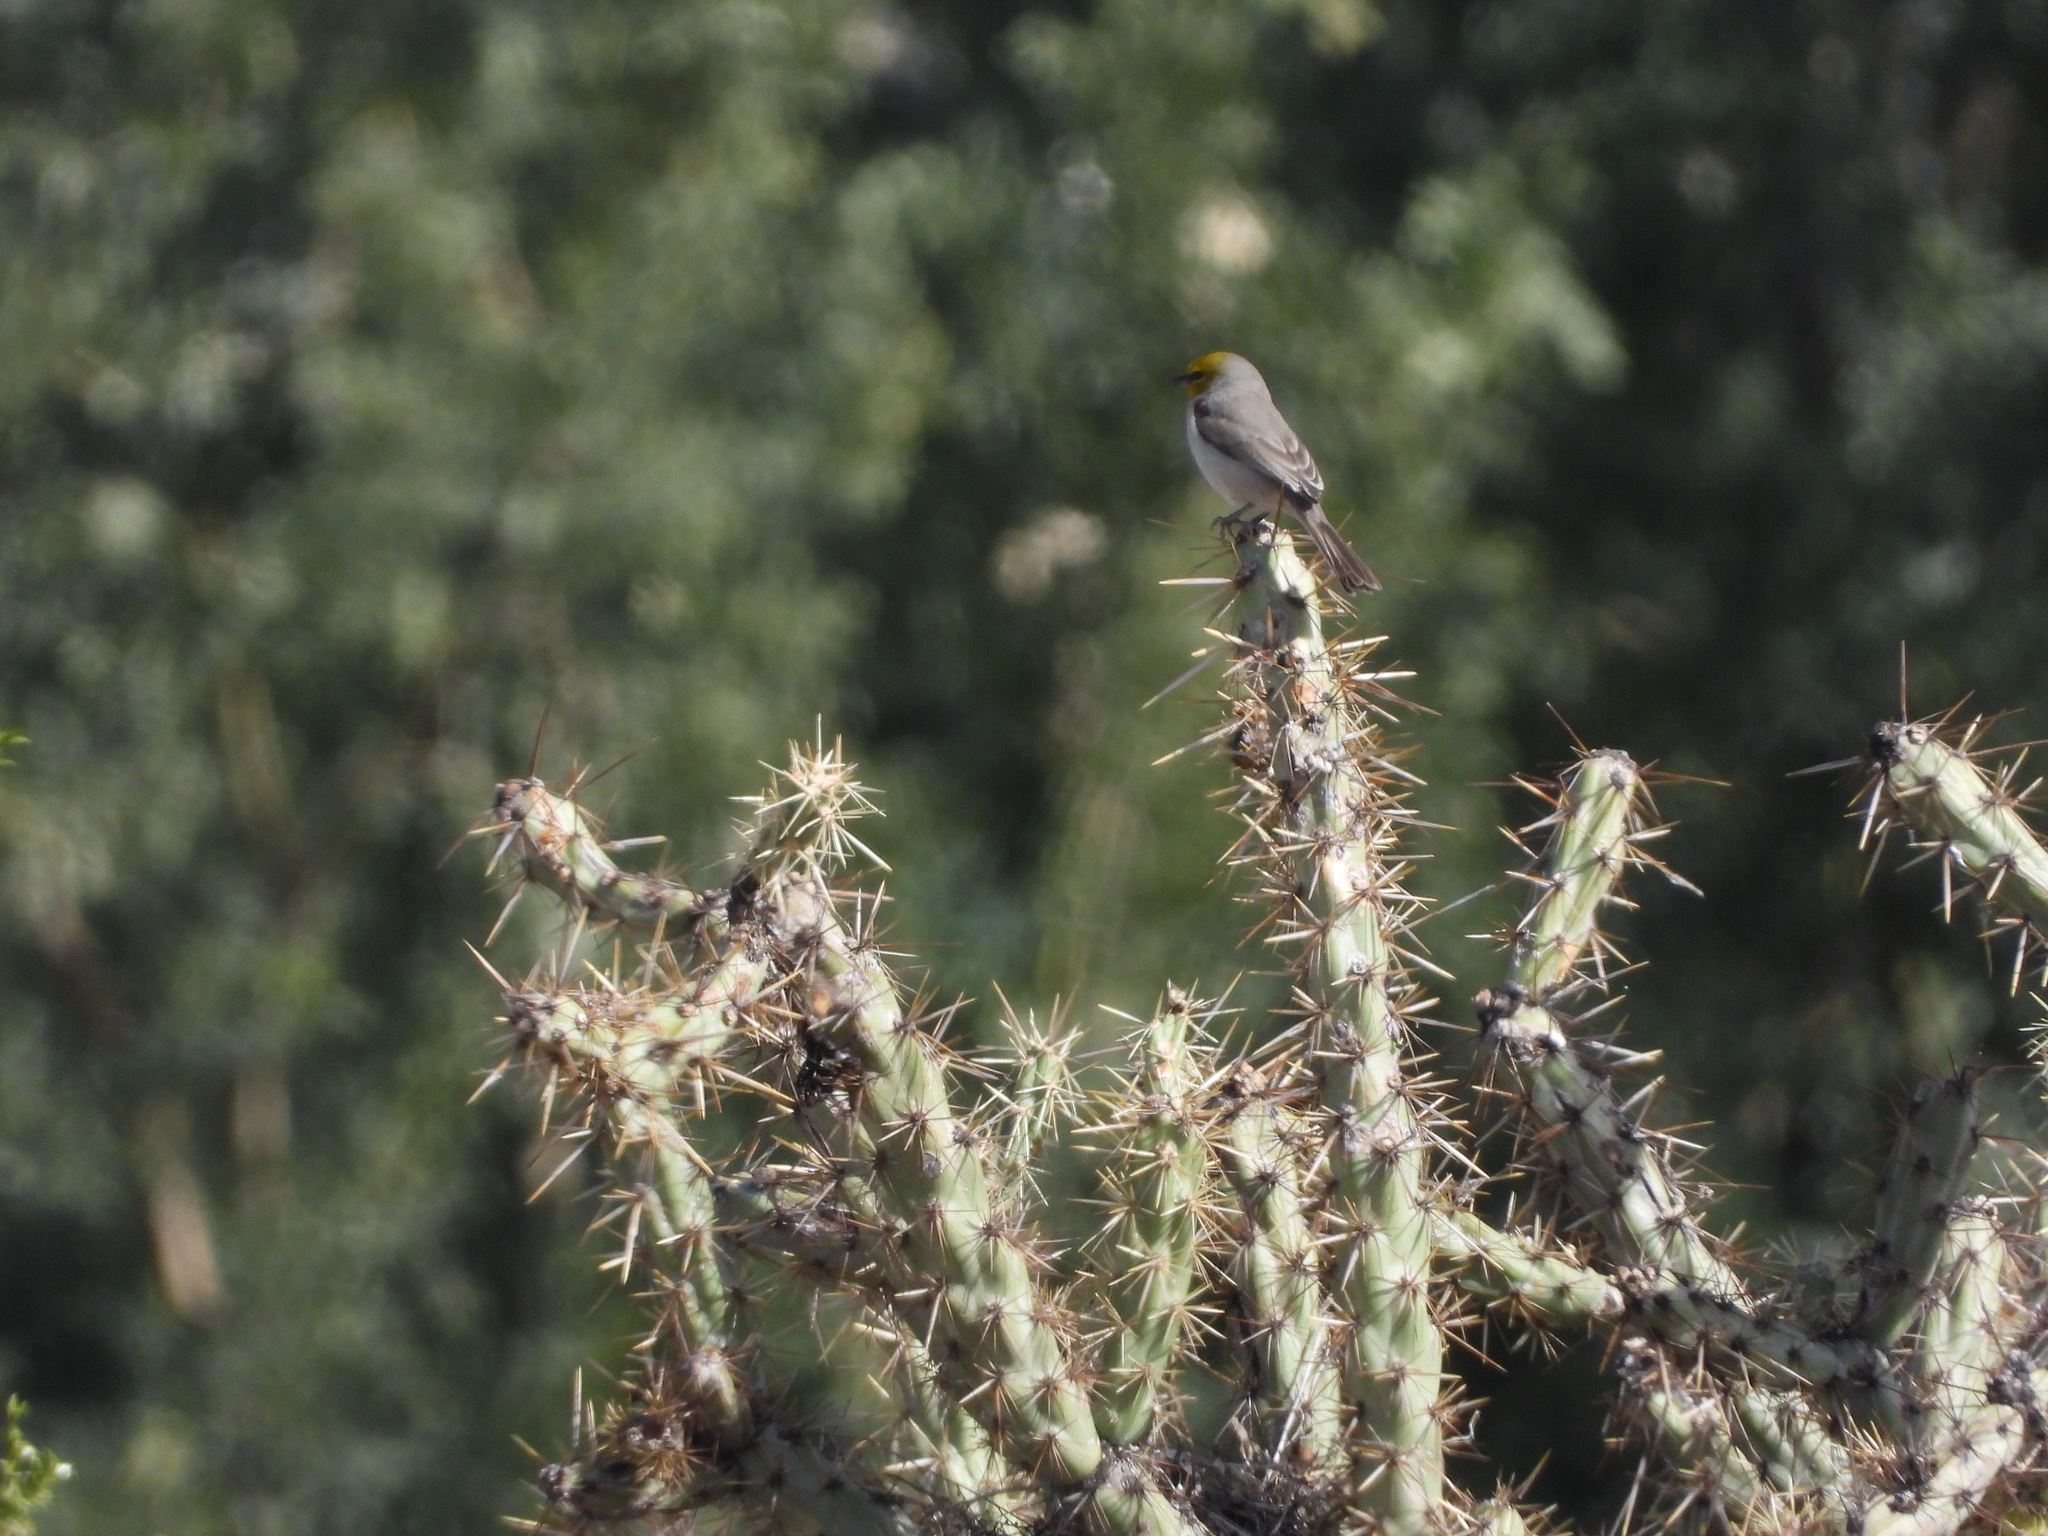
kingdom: Animalia
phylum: Chordata
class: Aves
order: Passeriformes
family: Remizidae
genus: Auriparus
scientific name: Auriparus flaviceps
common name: Verdin
